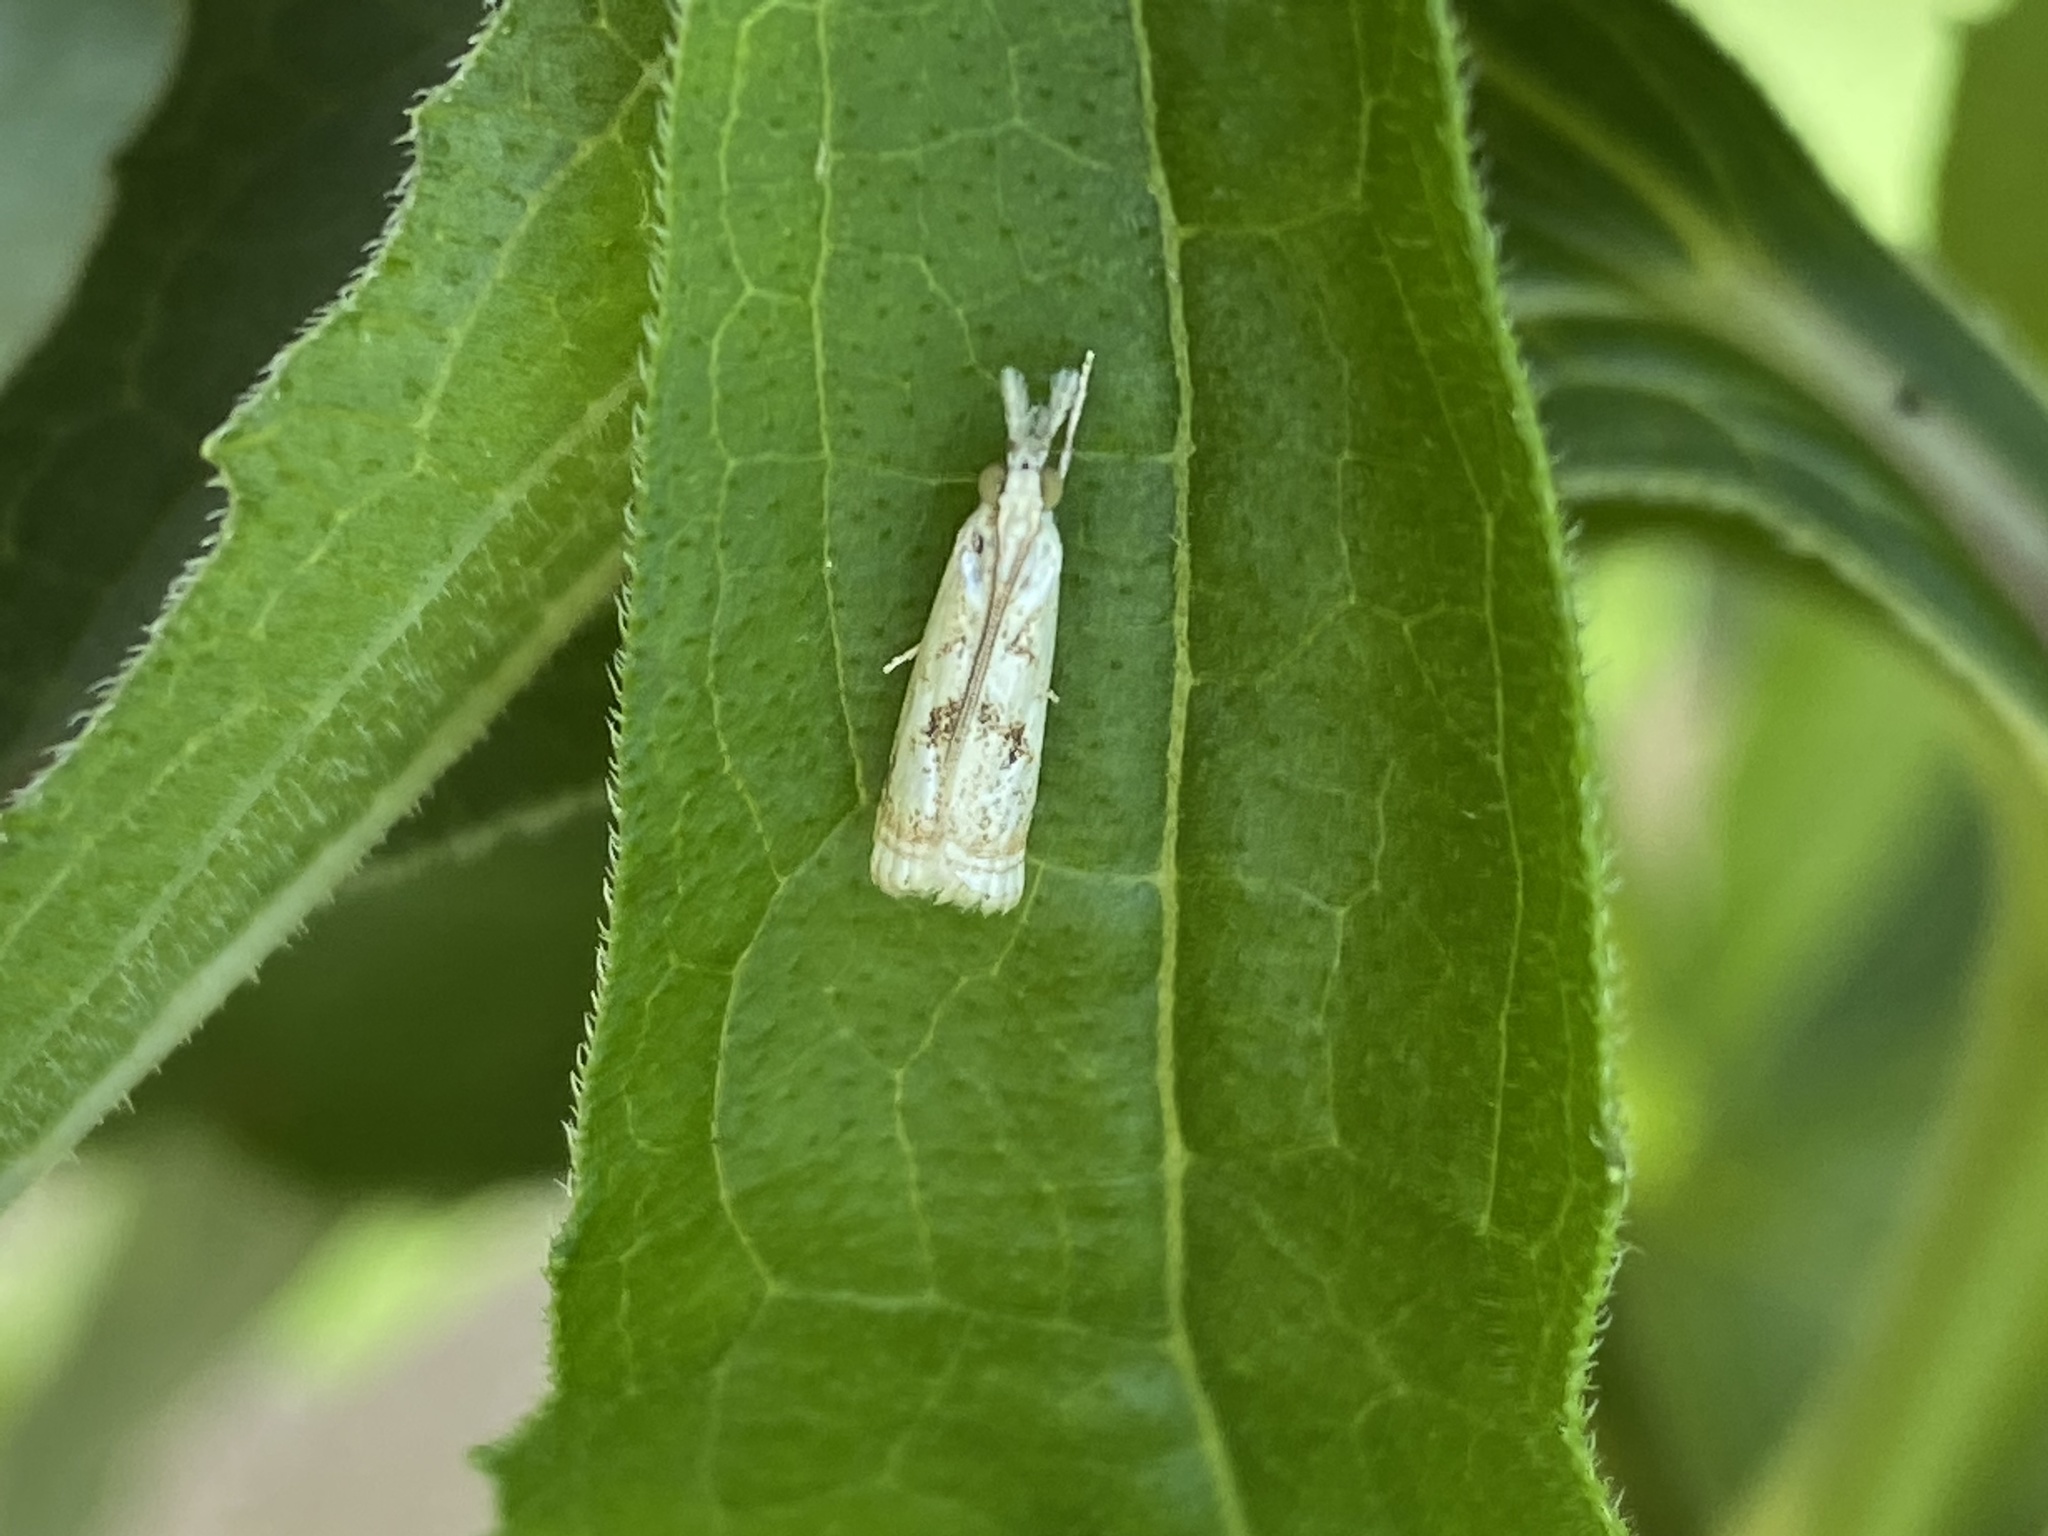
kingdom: Animalia
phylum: Arthropoda
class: Insecta
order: Lepidoptera
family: Crambidae
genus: Microcrambus
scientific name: Microcrambus elegans
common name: Elegant grass-veneer
